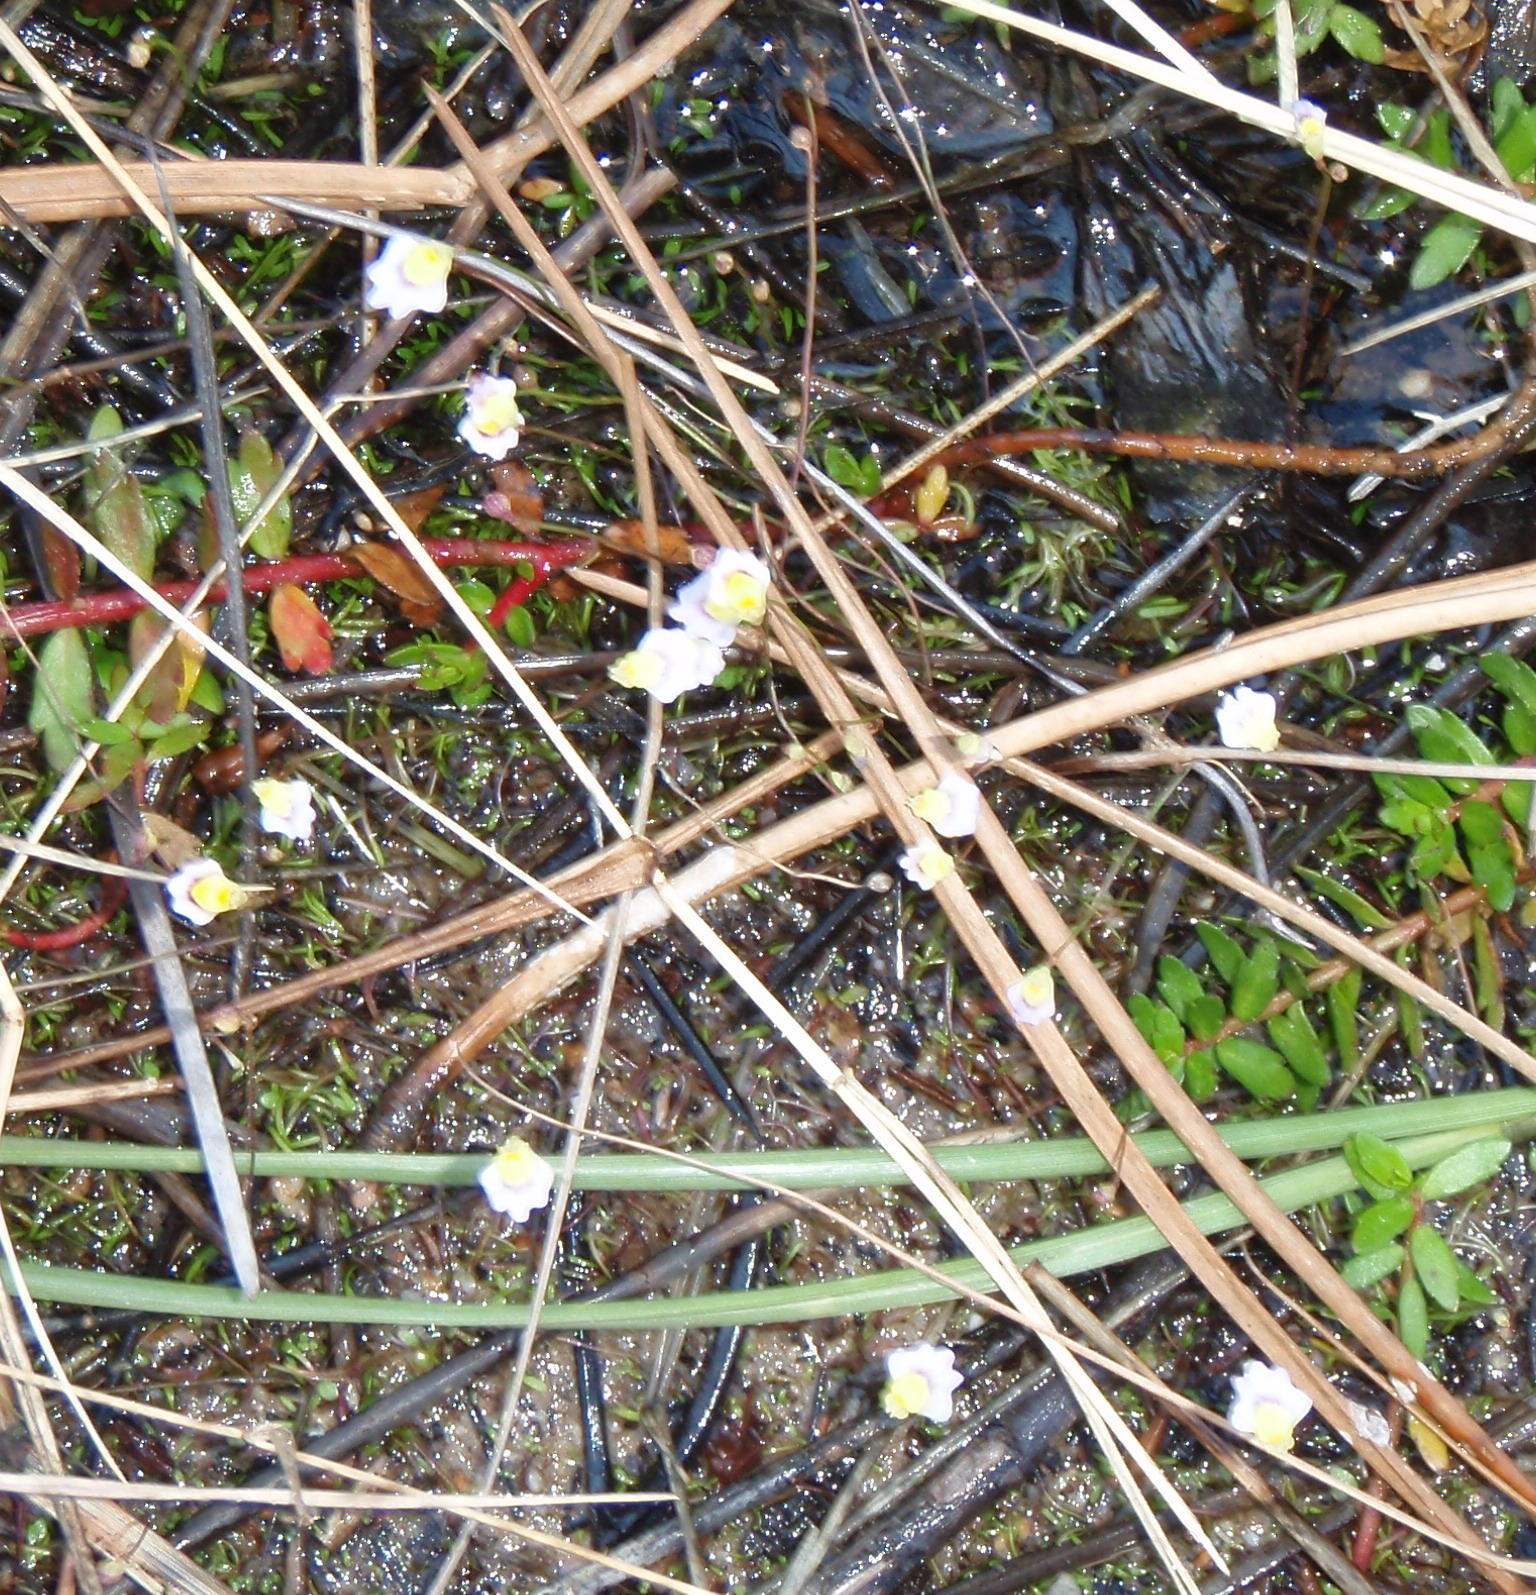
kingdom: Plantae
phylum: Tracheophyta
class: Magnoliopsida
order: Lamiales
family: Lentibulariaceae
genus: Utricularia
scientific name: Utricularia bisquamata
